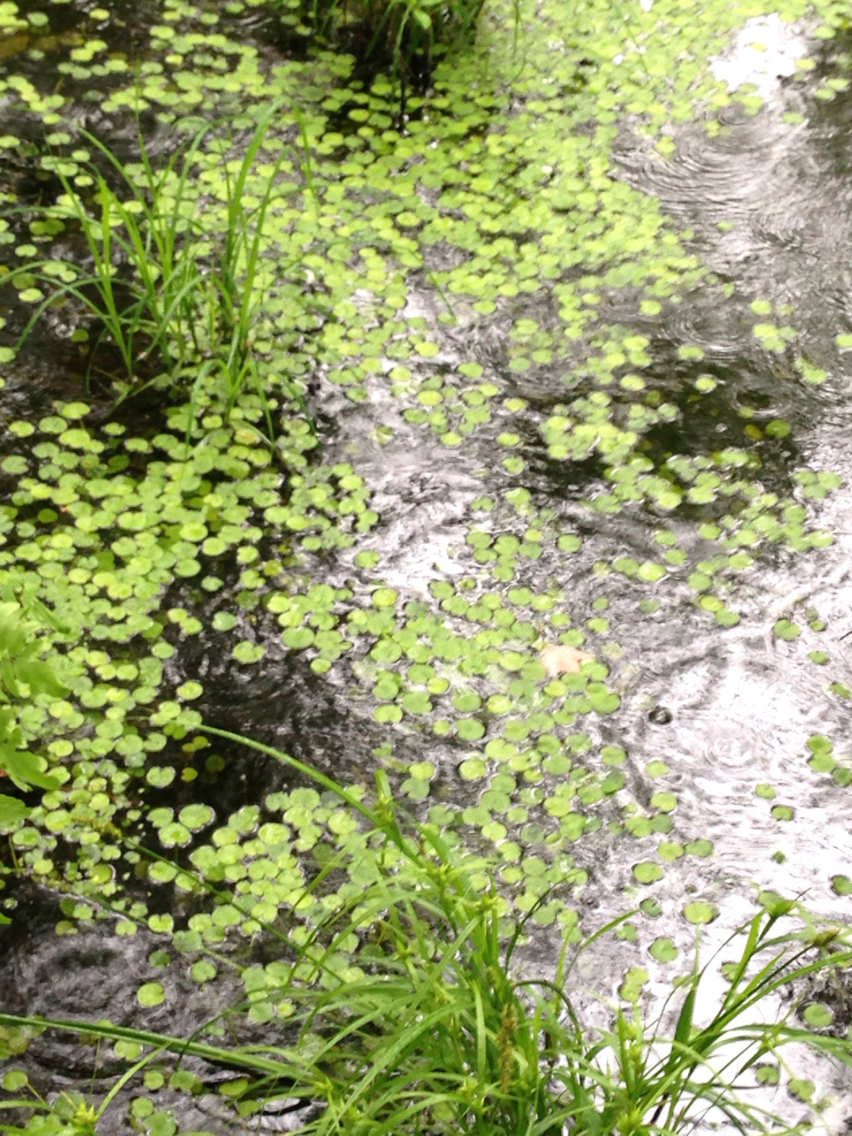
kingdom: Plantae
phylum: Tracheophyta
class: Liliopsida
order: Alismatales
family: Hydrocharitaceae
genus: Hydrocharis
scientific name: Hydrocharis morsus-ranae
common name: Frogbit
